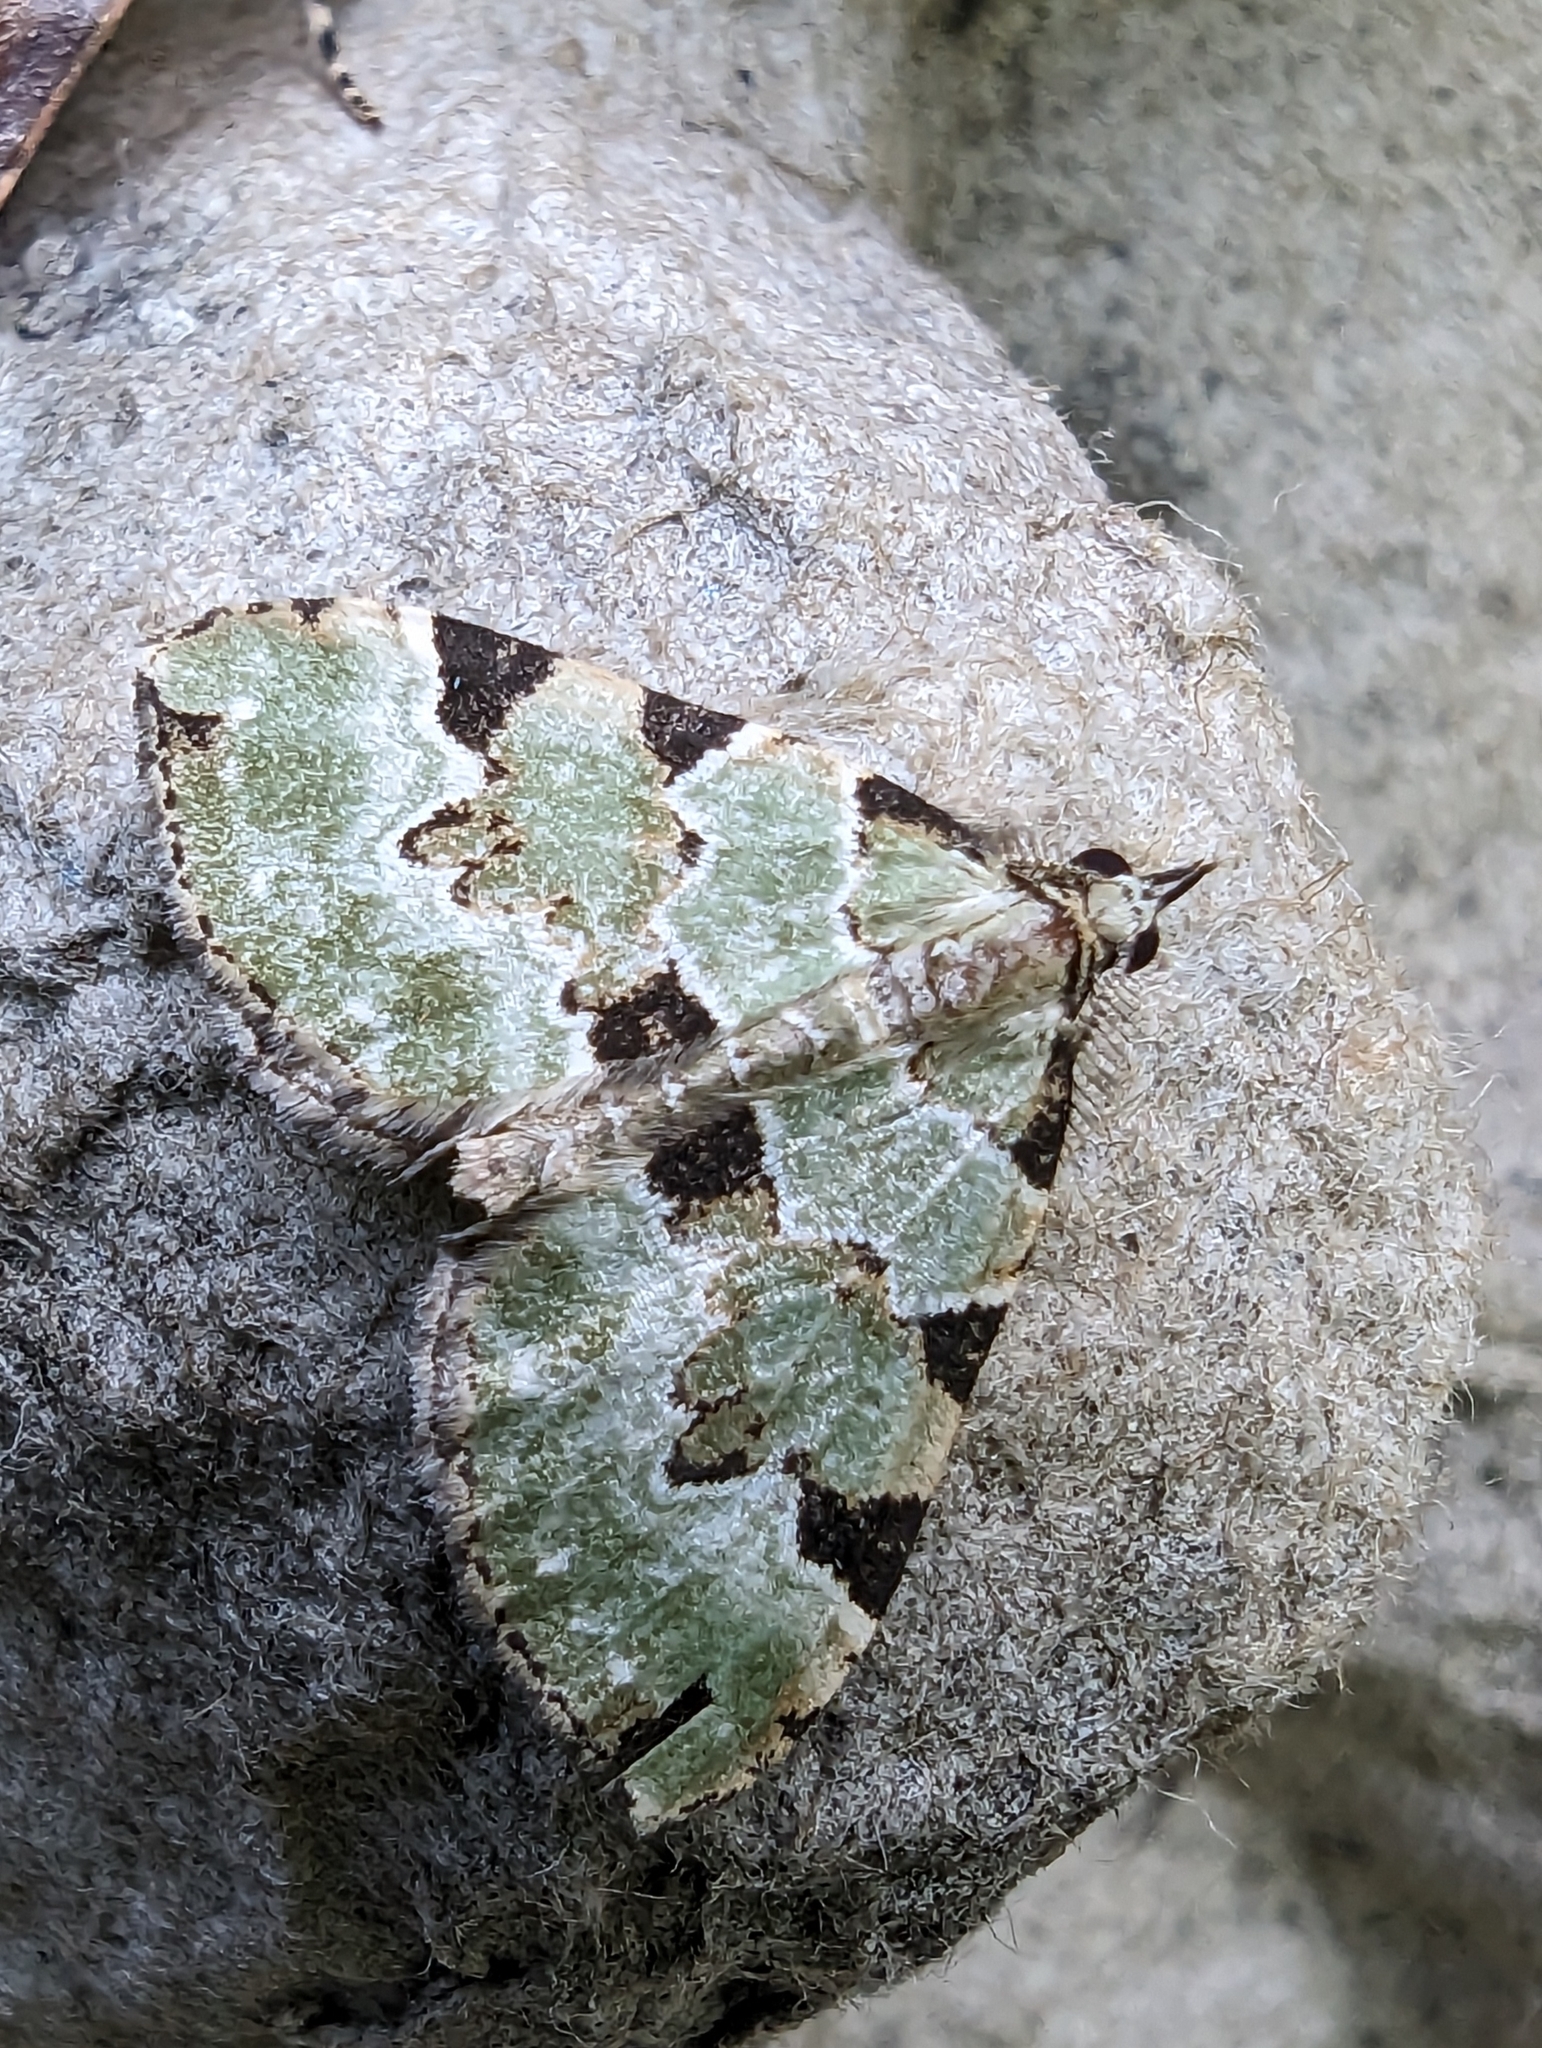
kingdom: Animalia
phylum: Arthropoda
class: Insecta
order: Lepidoptera
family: Geometridae
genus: Colostygia
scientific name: Colostygia pectinataria
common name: Green carpet
